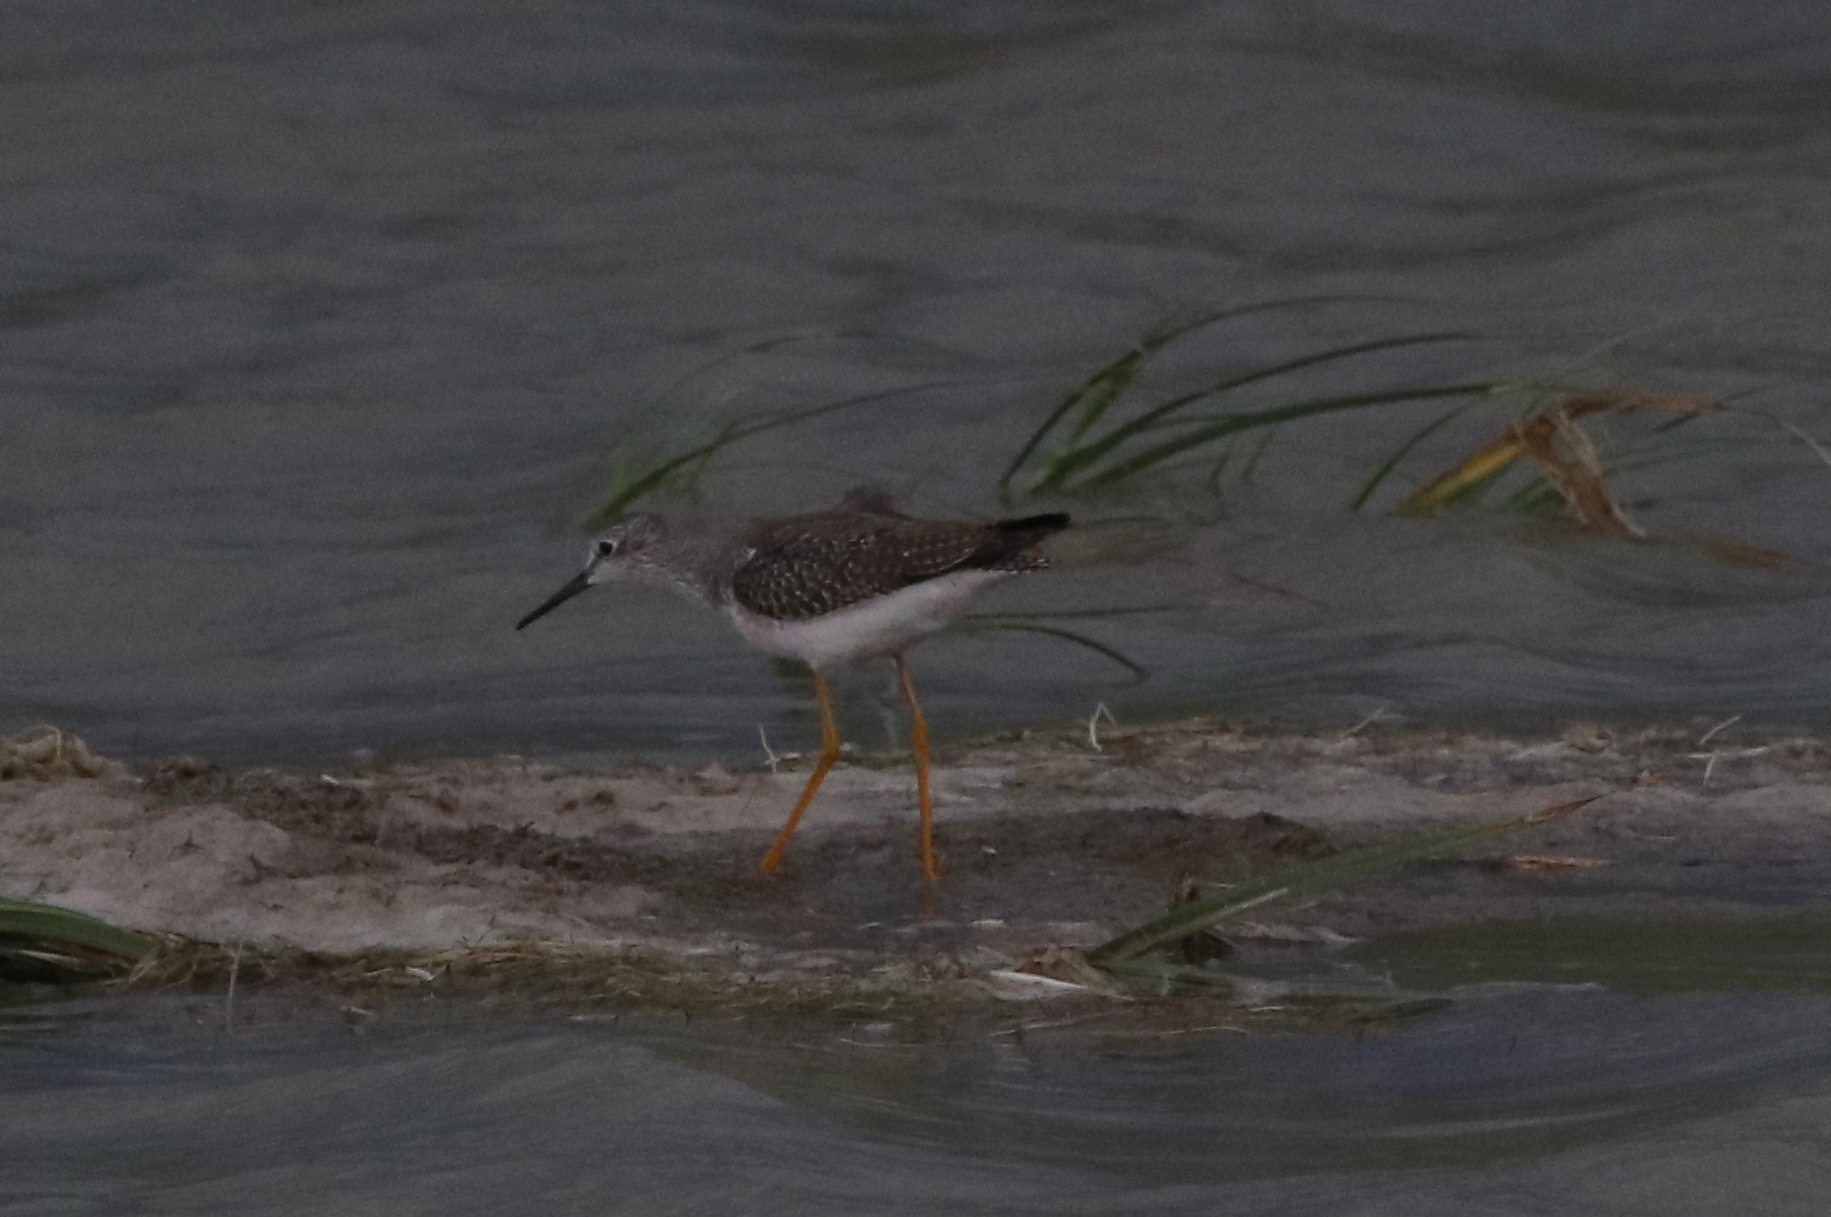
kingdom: Animalia
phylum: Chordata
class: Aves
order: Charadriiformes
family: Scolopacidae
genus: Tringa
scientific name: Tringa flavipes
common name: Lesser yellowlegs
